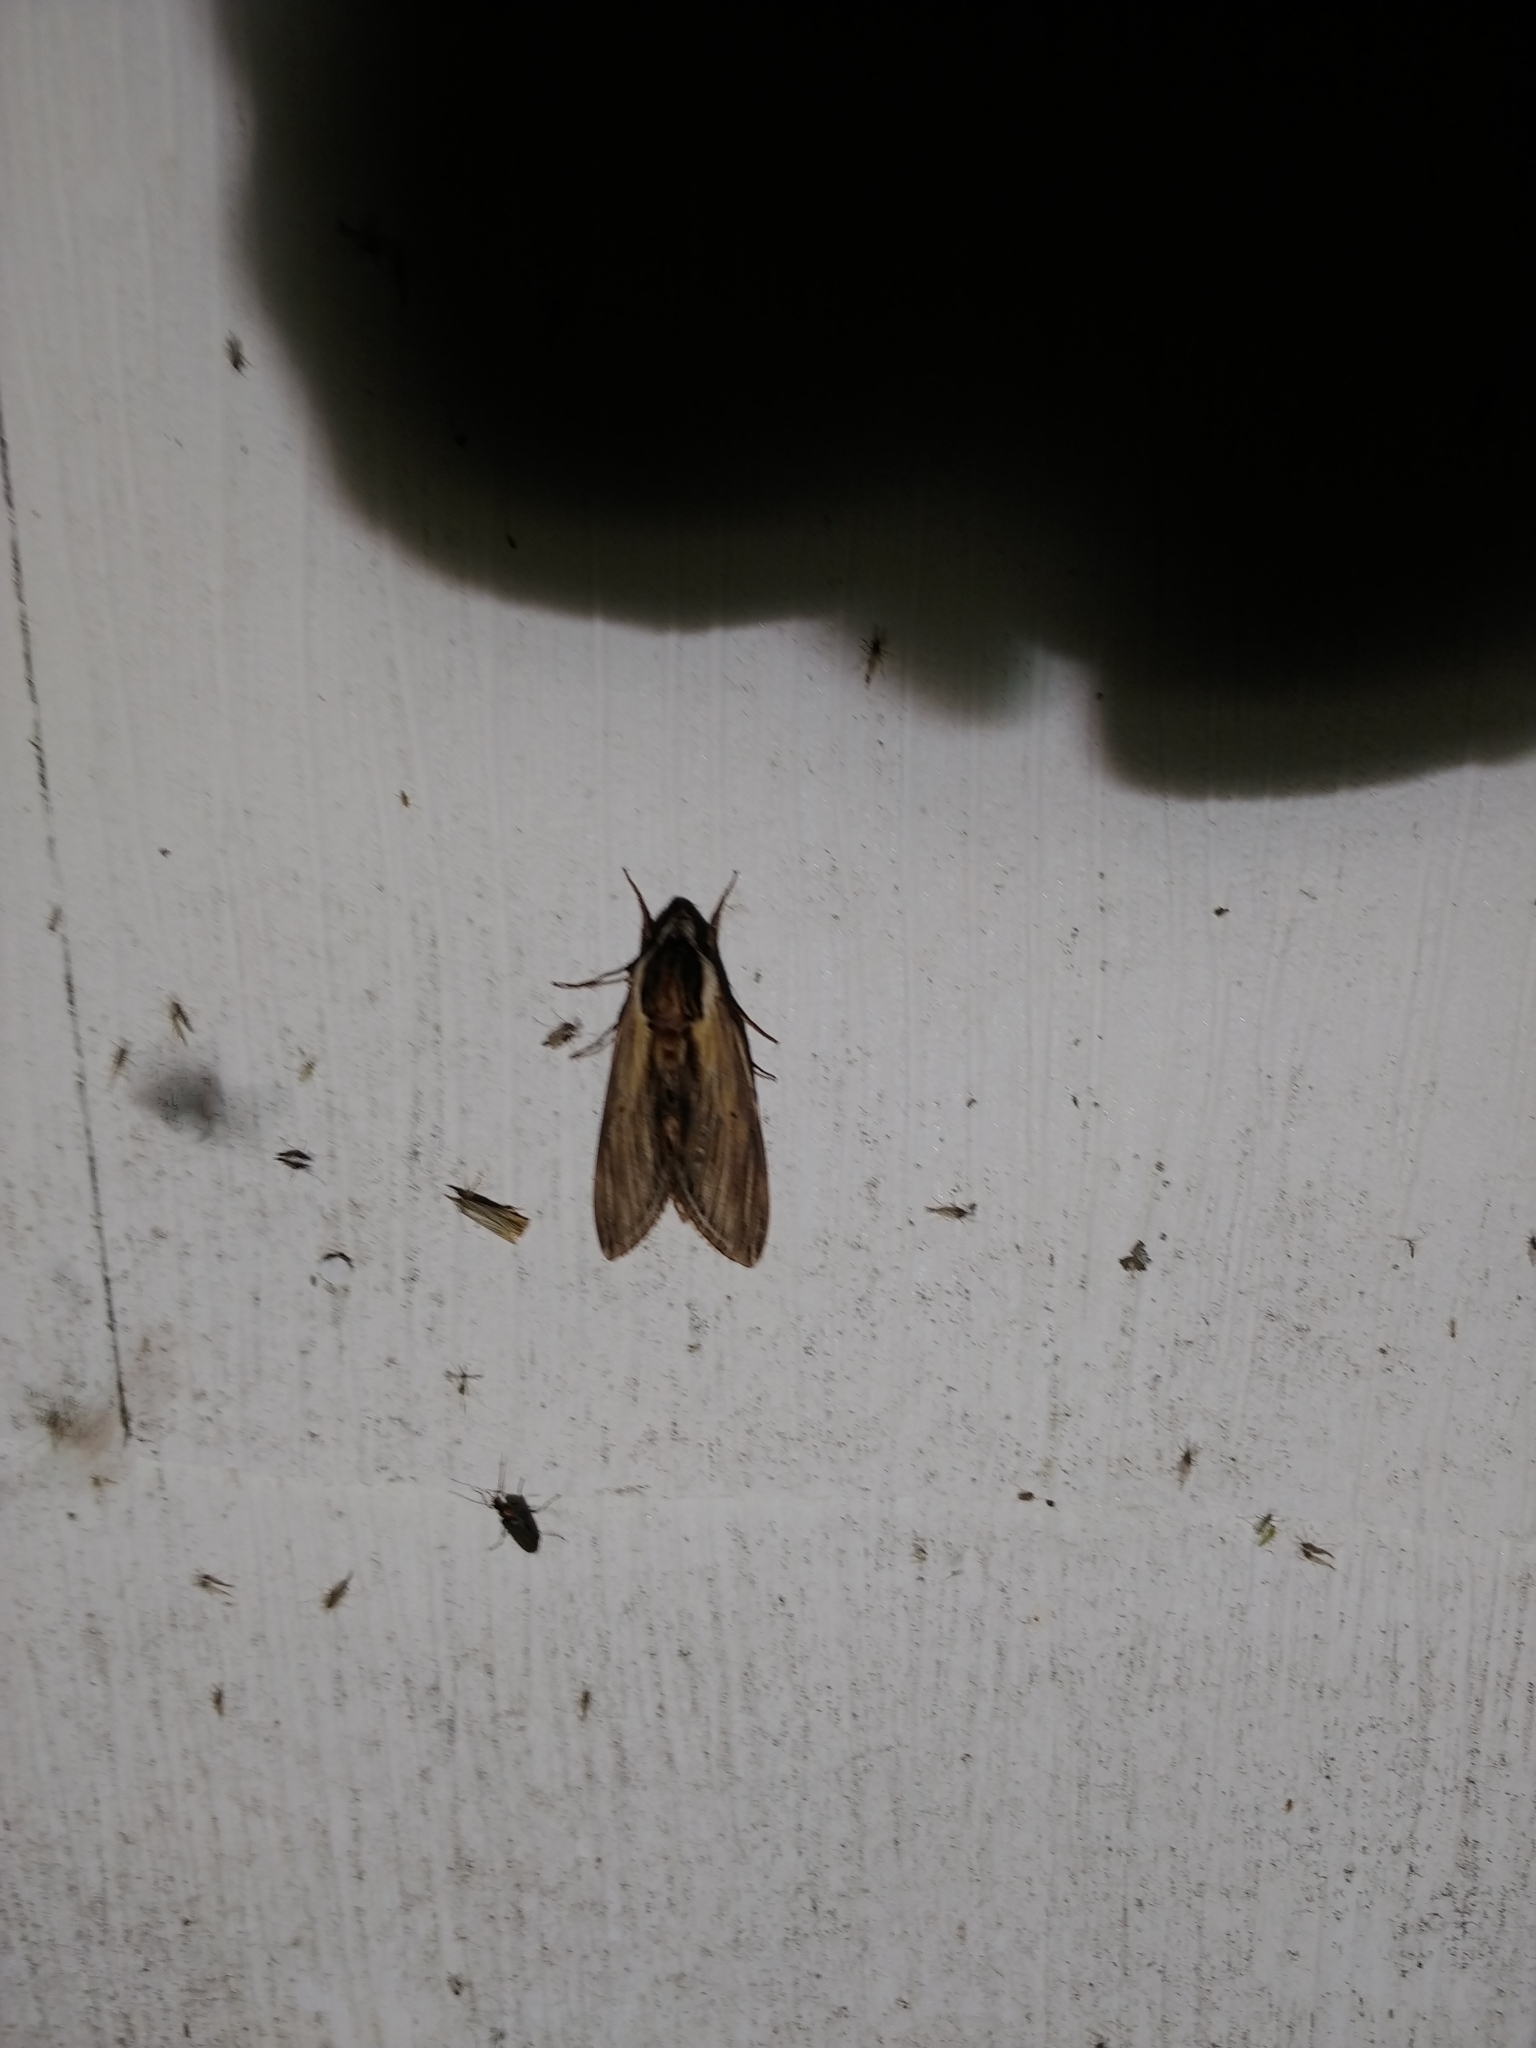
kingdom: Animalia
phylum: Arthropoda
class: Insecta
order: Lepidoptera
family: Sphingidae
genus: Sphinx
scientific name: Sphinx kalmiae
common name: Laurel sphinx
